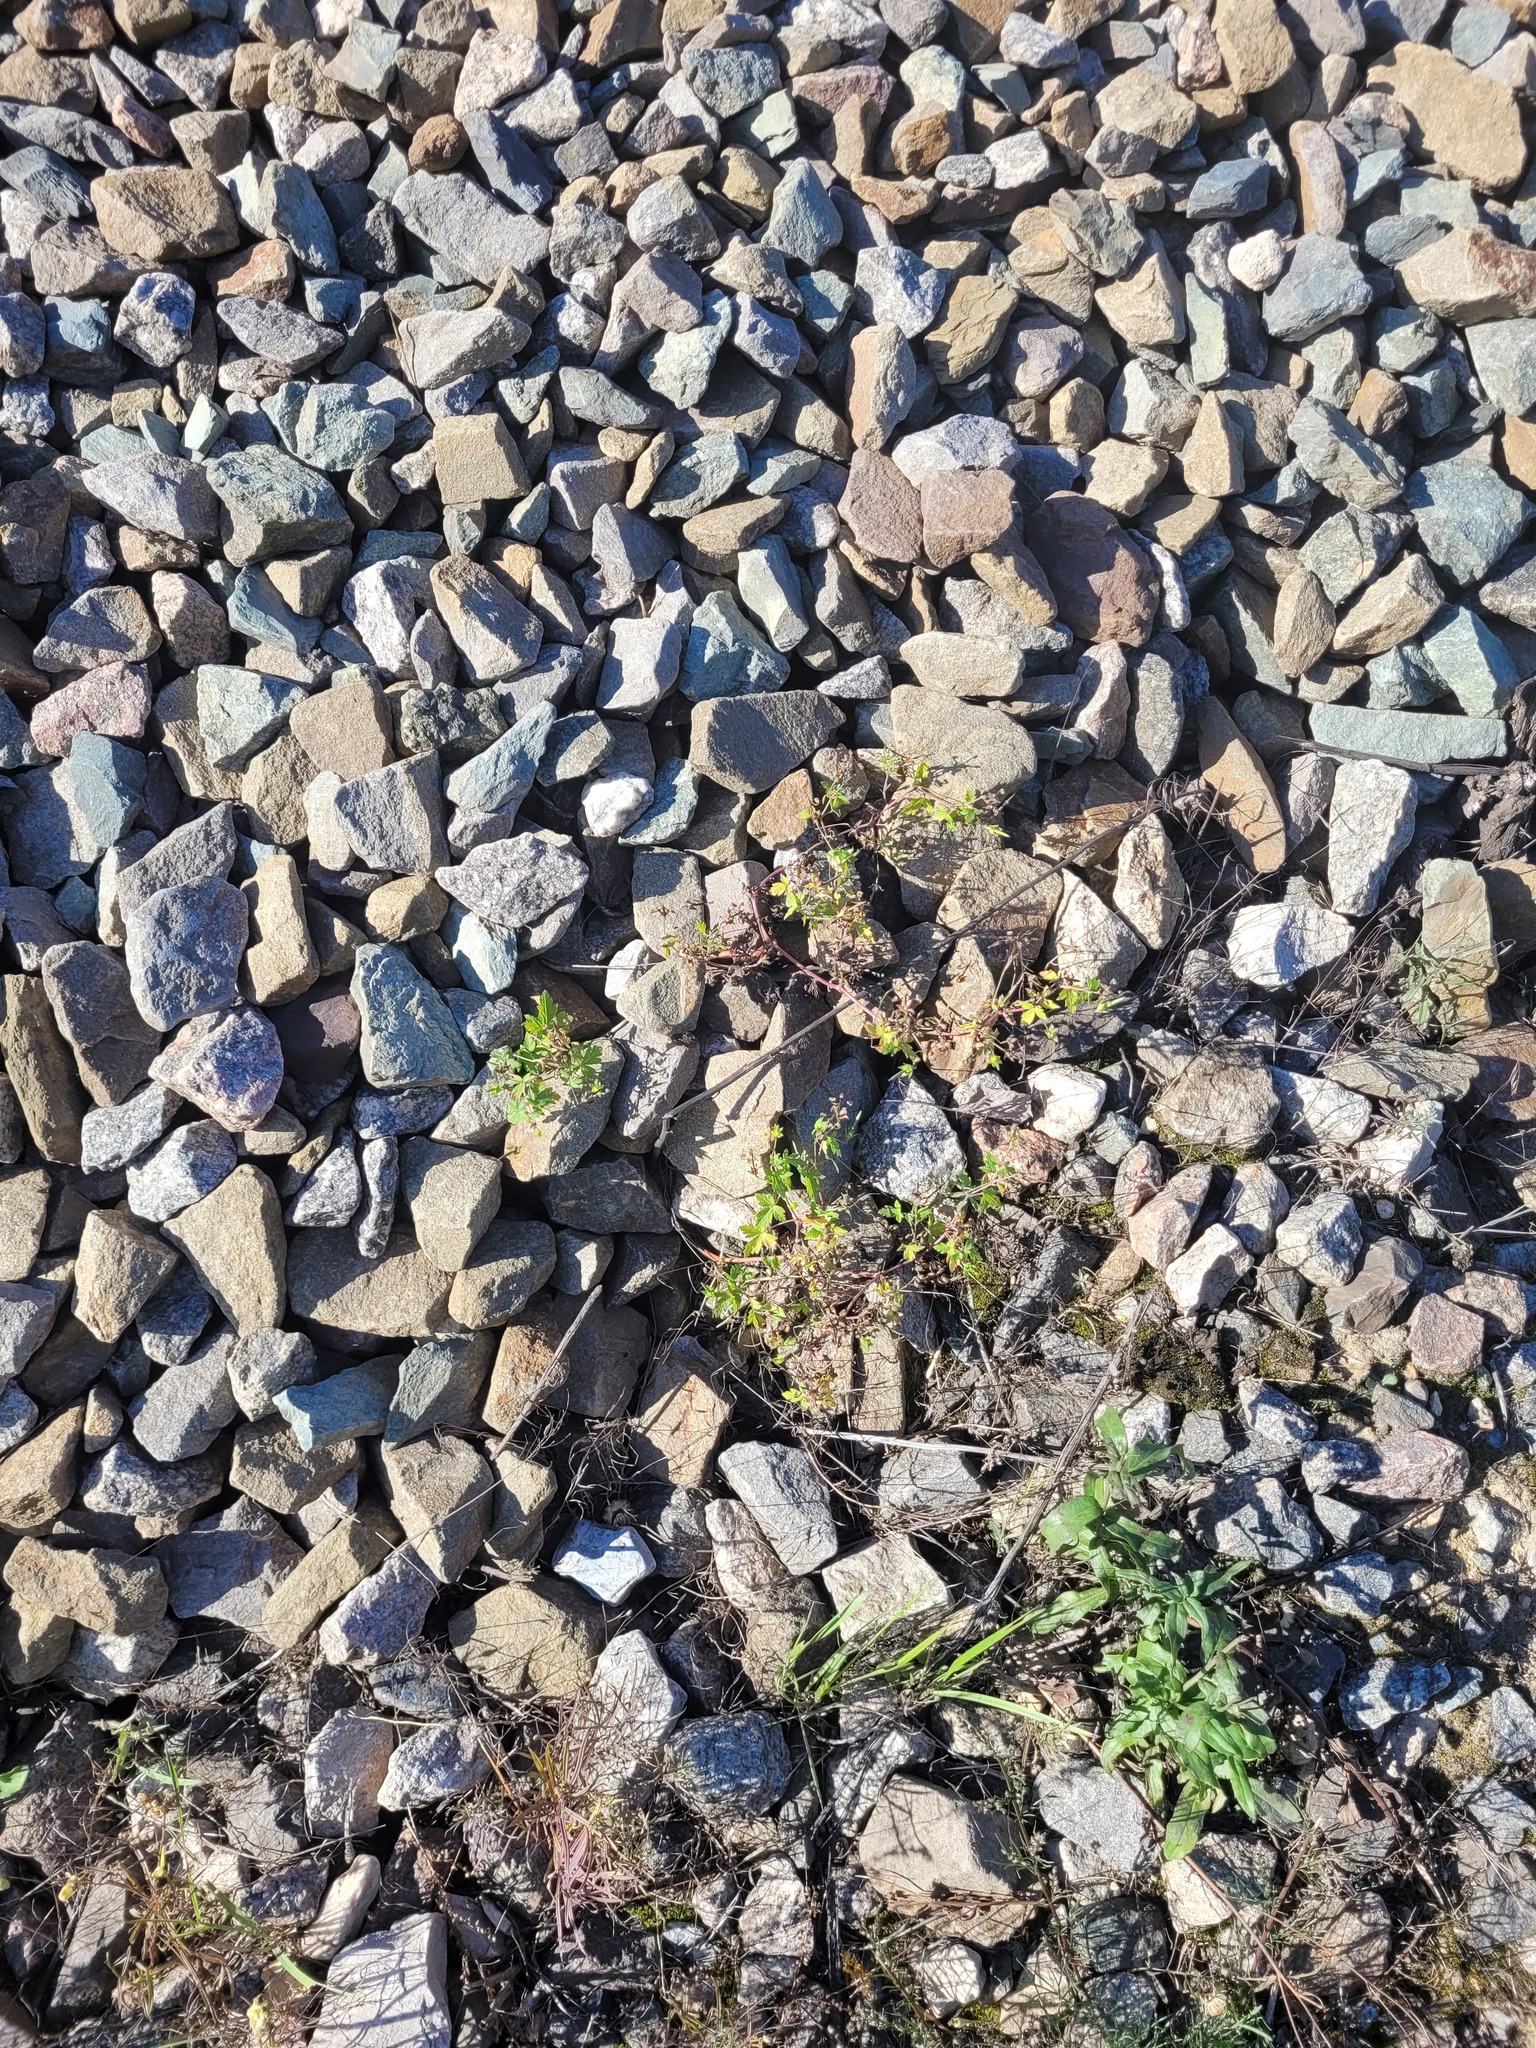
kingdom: Plantae
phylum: Tracheophyta
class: Magnoliopsida
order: Geraniales
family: Geraniaceae
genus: Geranium
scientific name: Geranium sibiricum
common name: Siberian crane's-bill
